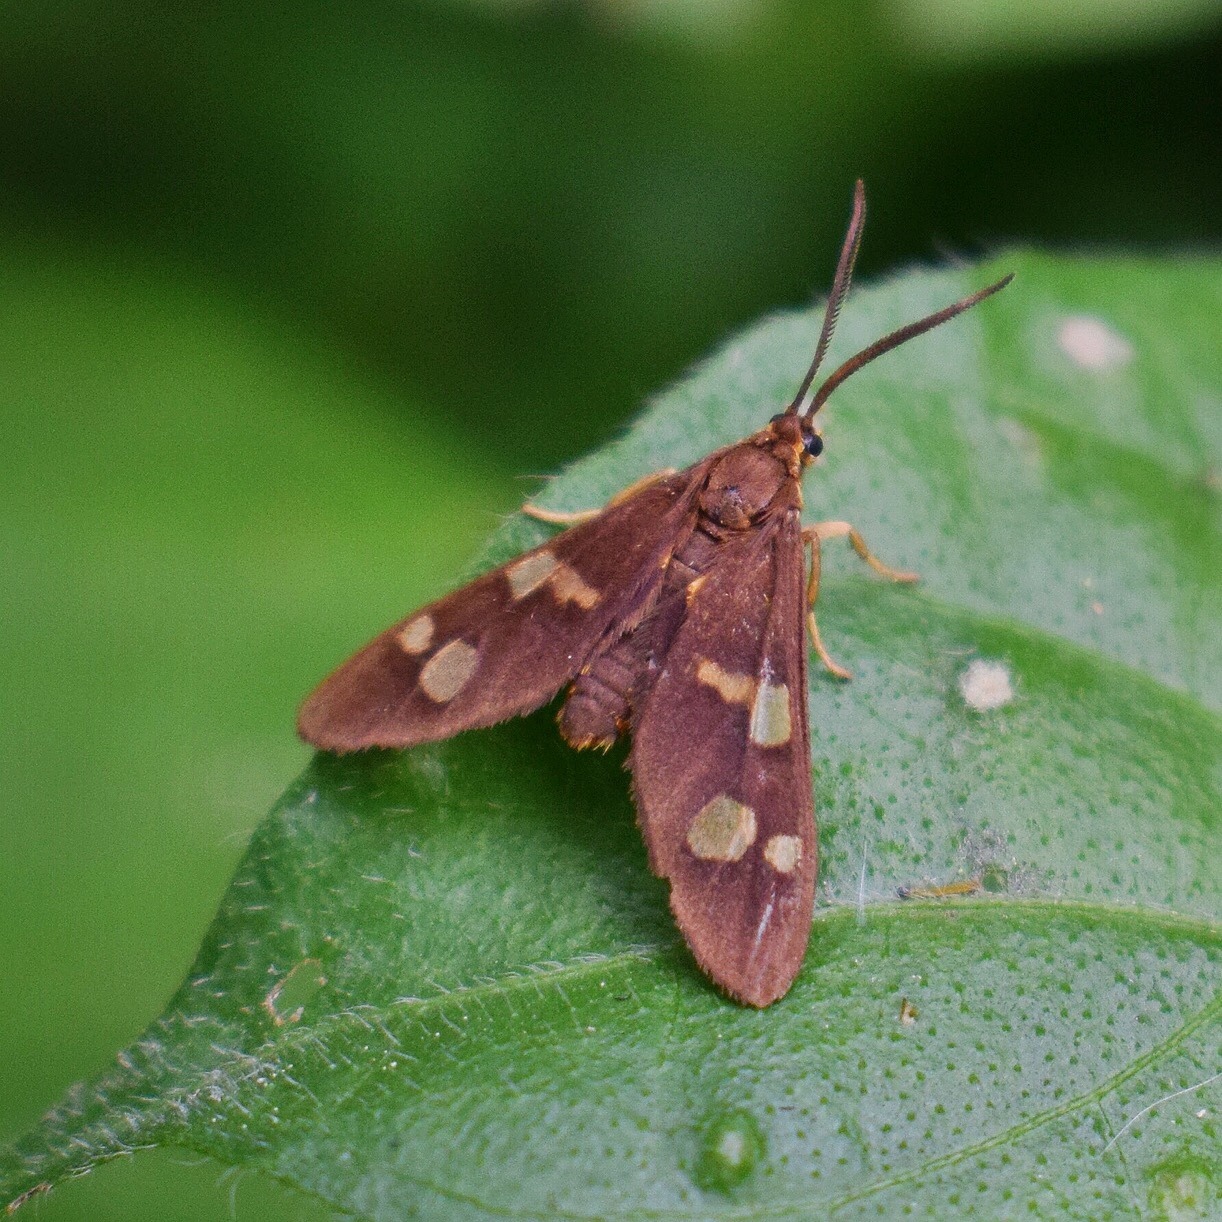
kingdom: Animalia
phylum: Arthropoda
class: Insecta
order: Lepidoptera
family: Erebidae
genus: Pseudonaclia
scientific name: Pseudonaclia puella
